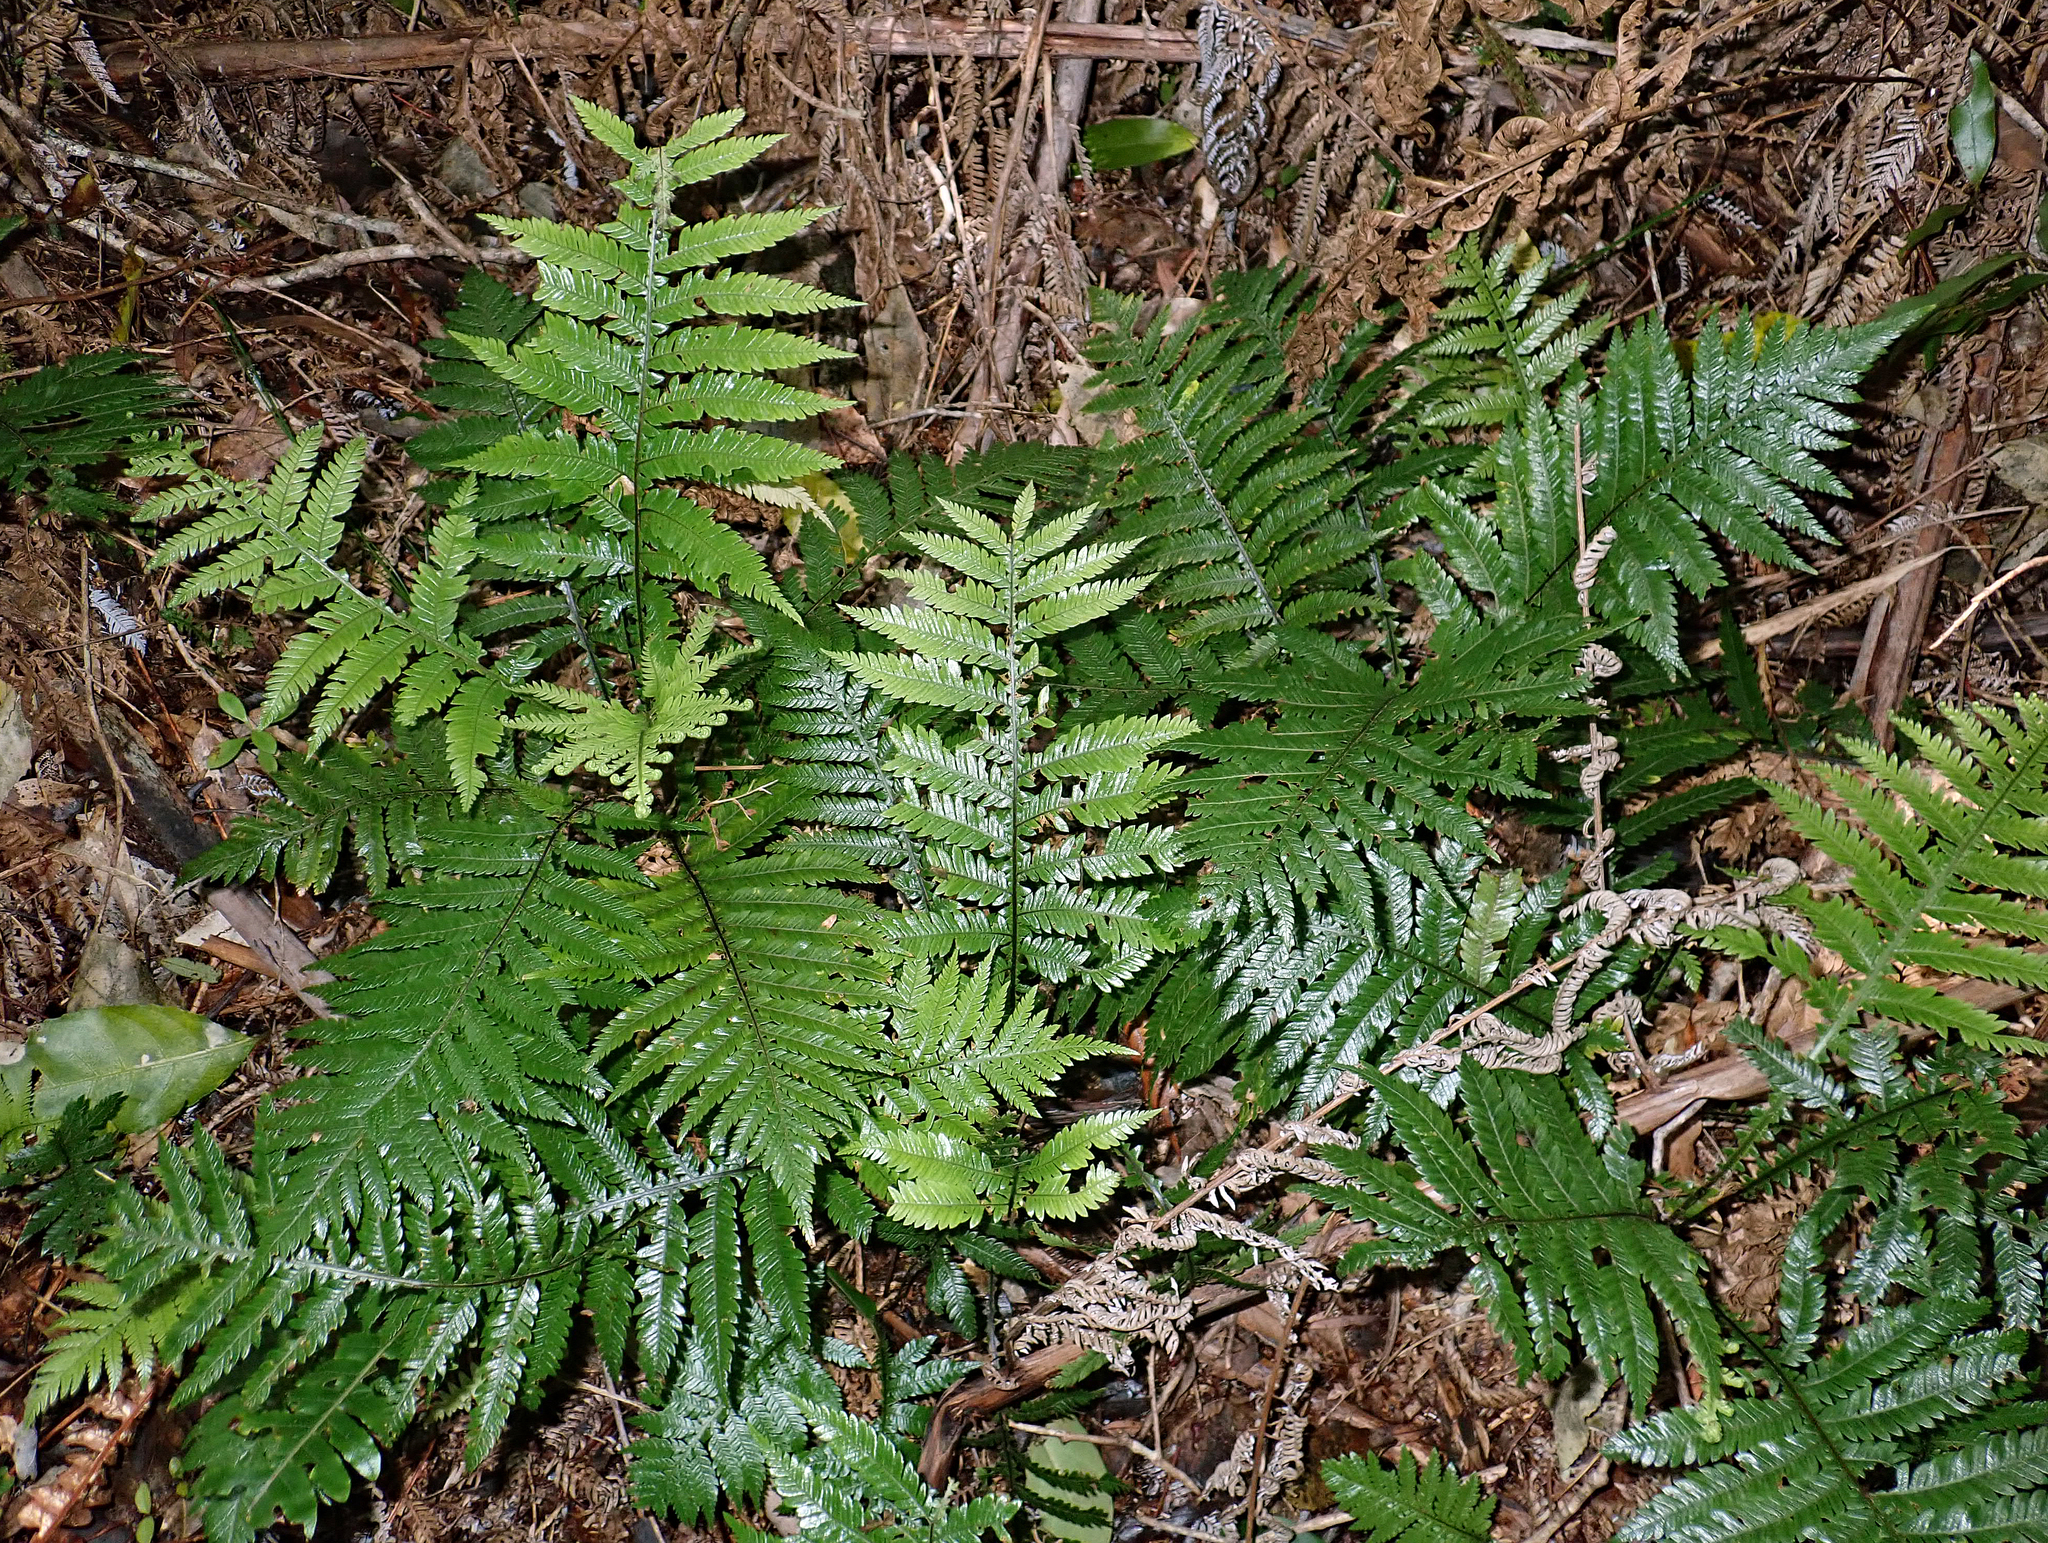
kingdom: Plantae
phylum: Tracheophyta
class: Polypodiopsida
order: Polypodiales
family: Blechnaceae
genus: Diploblechnum
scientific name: Diploblechnum fraseri
